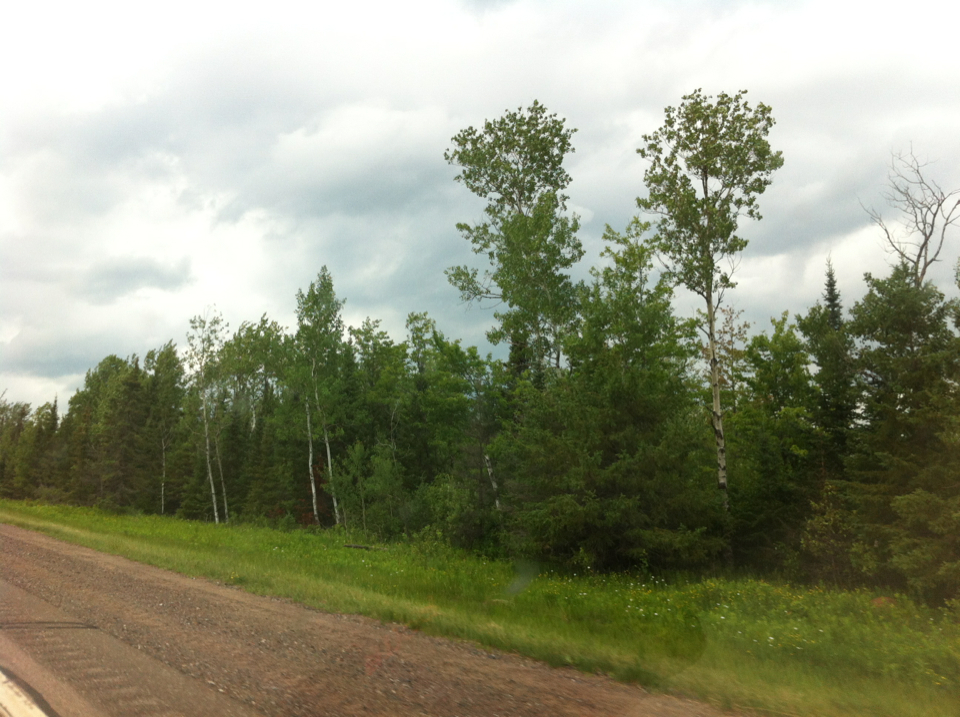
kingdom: Plantae
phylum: Tracheophyta
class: Magnoliopsida
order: Malpighiales
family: Salicaceae
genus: Populus
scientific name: Populus tremuloides
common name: Quaking aspen
